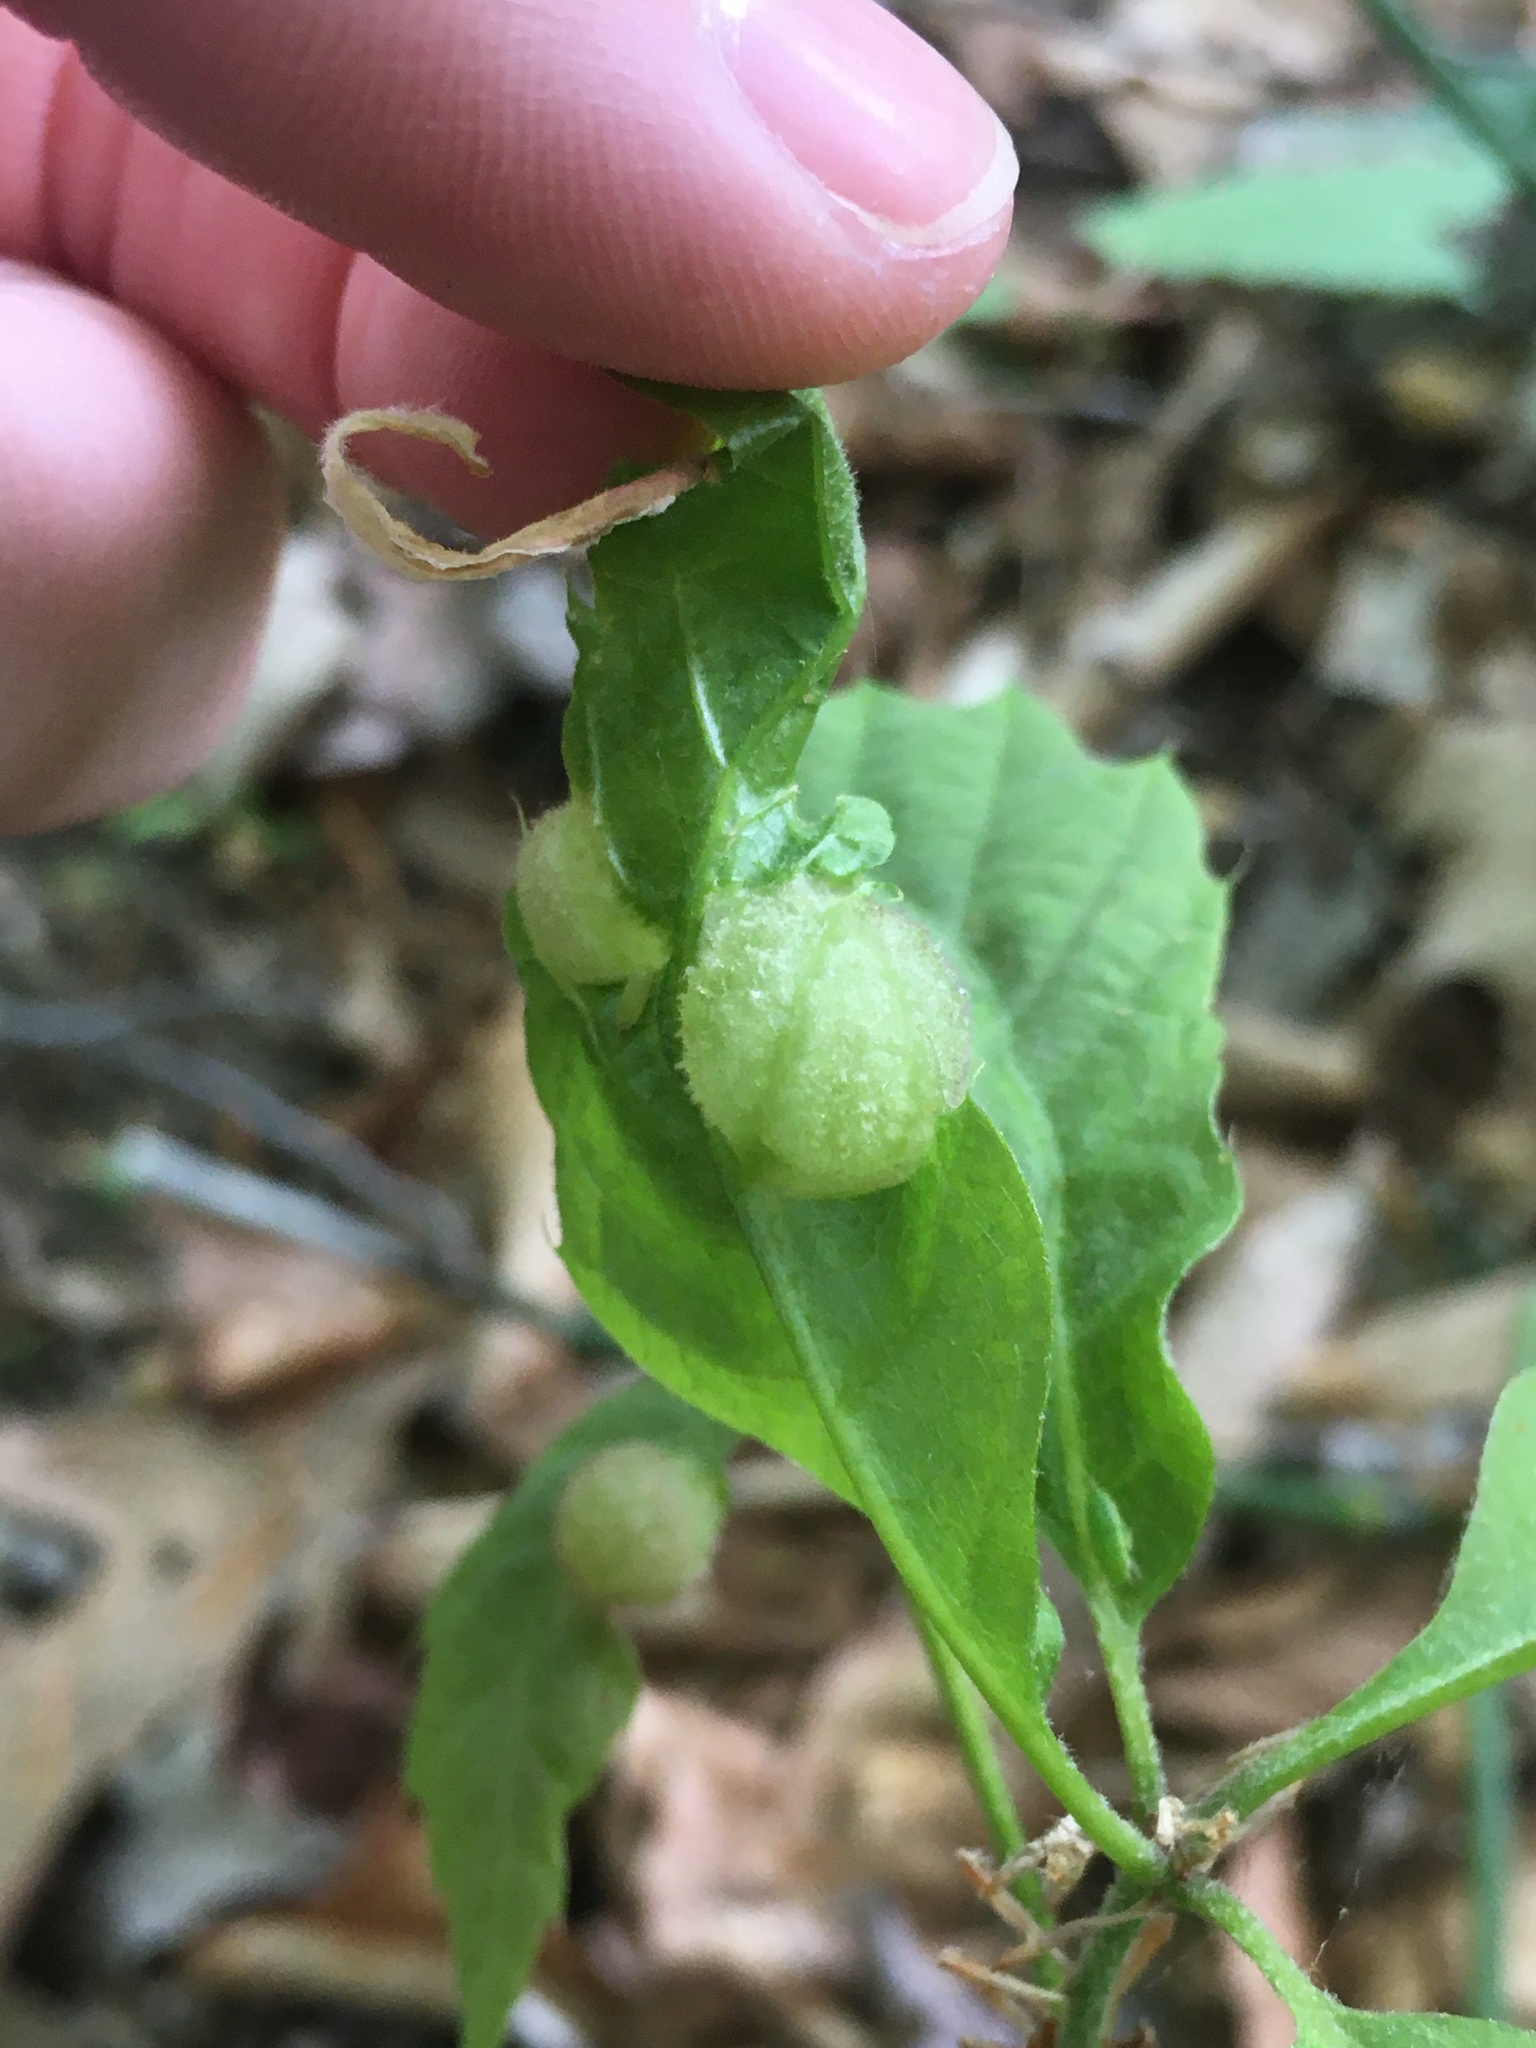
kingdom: Animalia
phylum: Arthropoda
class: Insecta
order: Hymenoptera
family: Cynipidae
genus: Dryocosmus
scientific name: Dryocosmus quercuspalustris
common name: Succulent oak gall wasp
